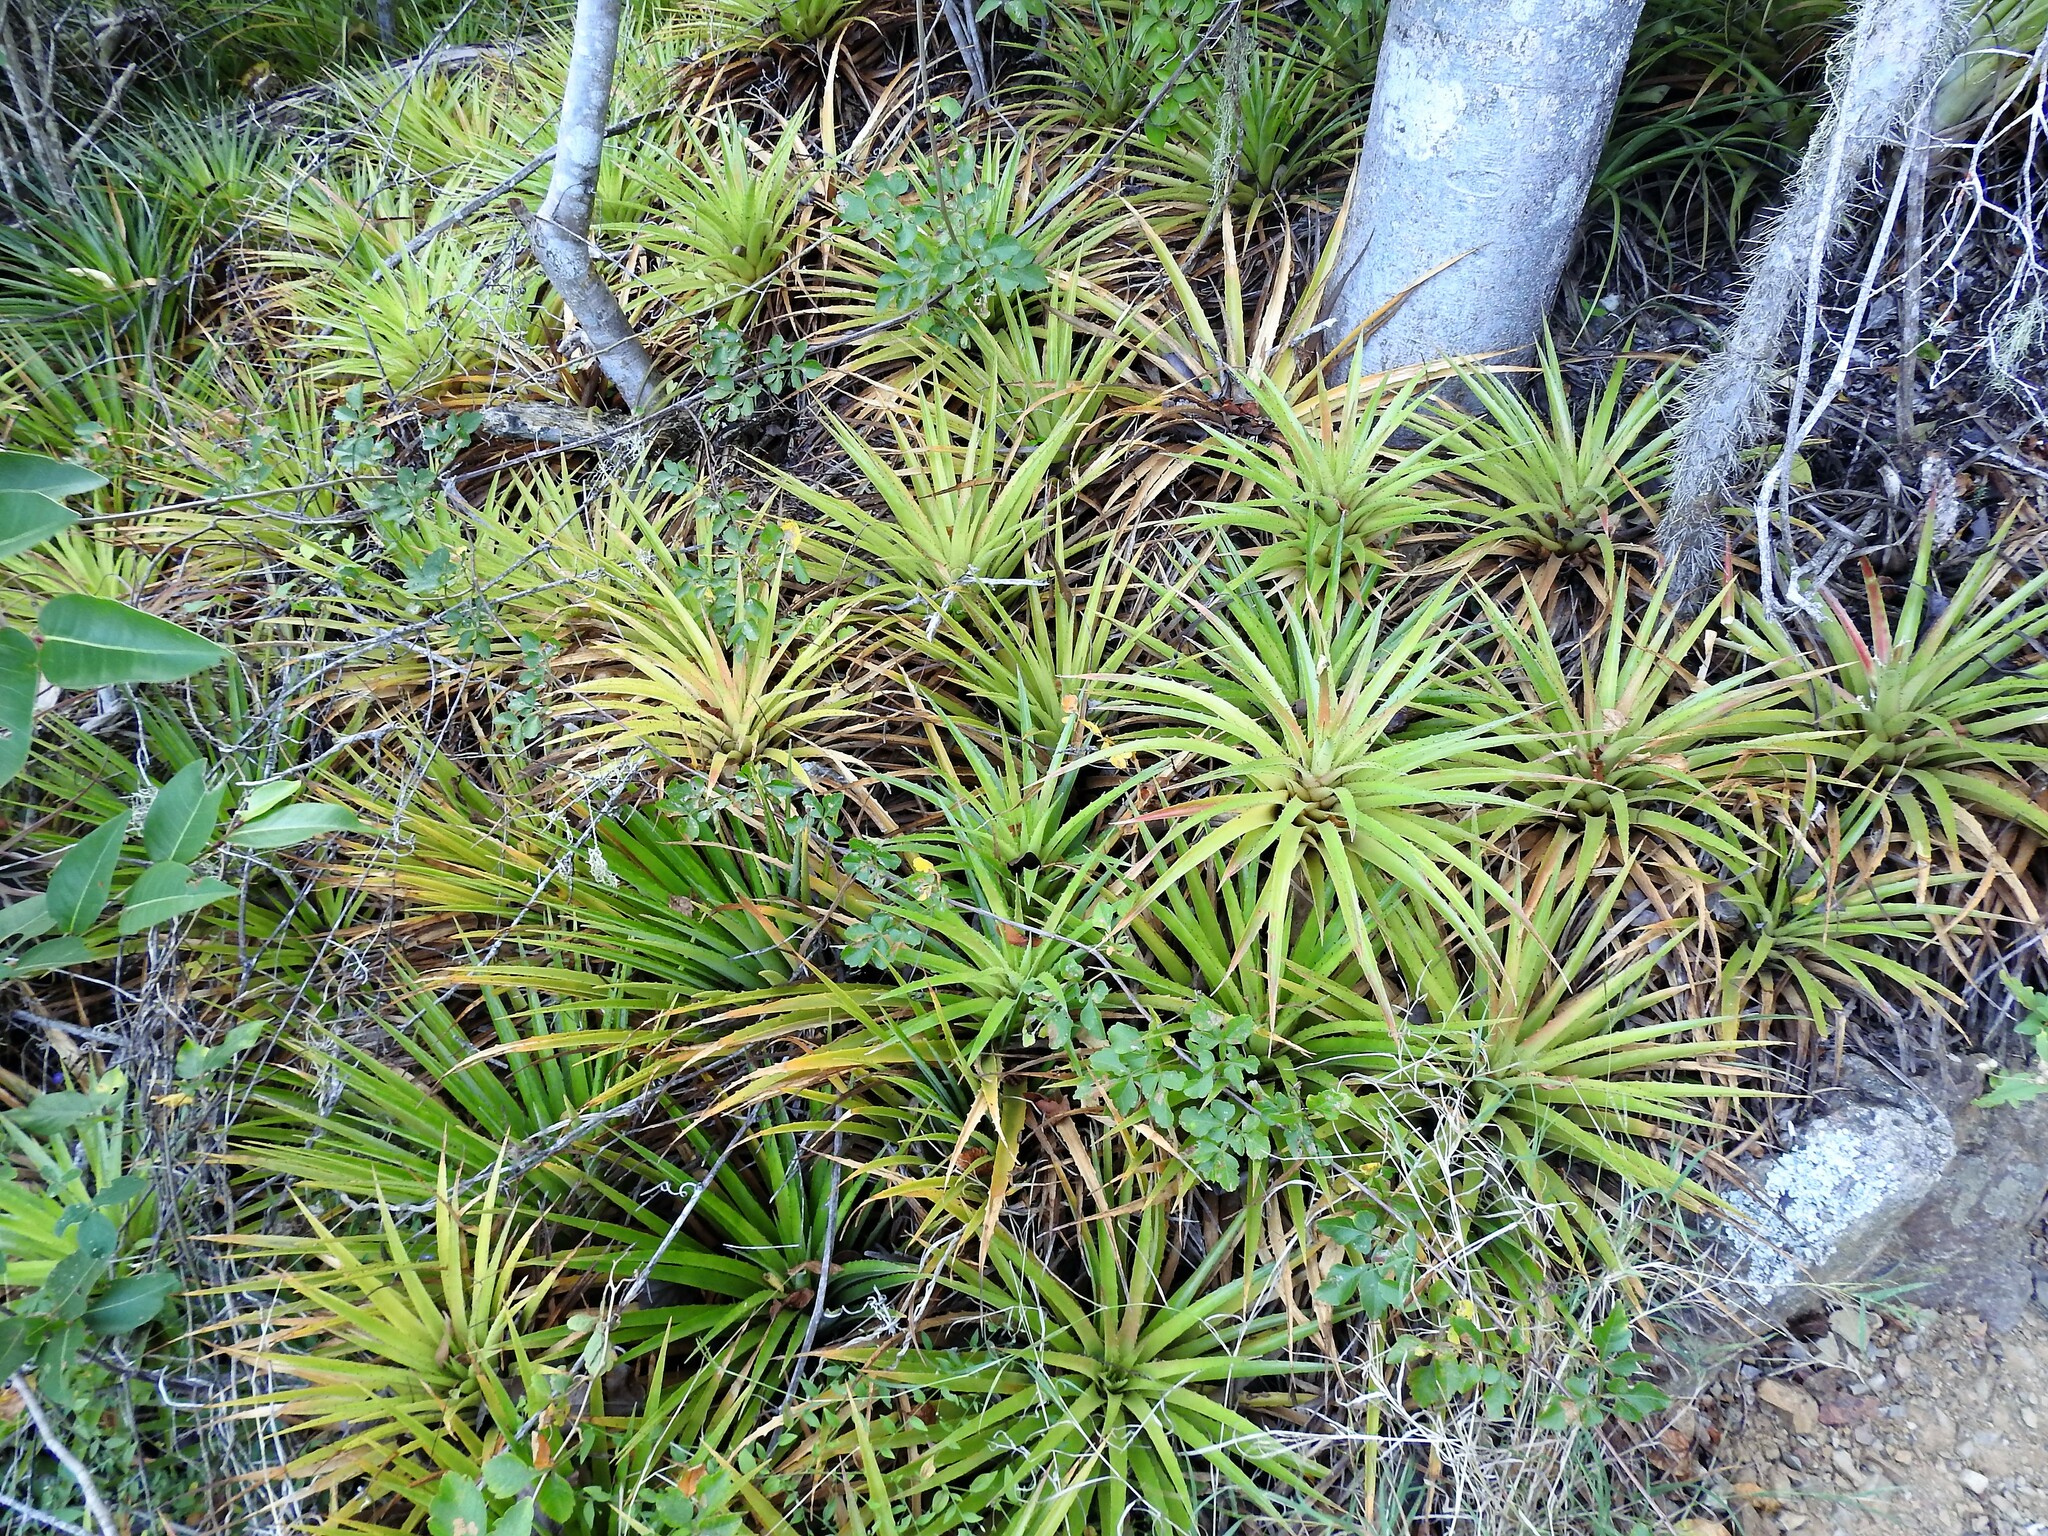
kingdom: Plantae
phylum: Tracheophyta
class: Liliopsida
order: Poales
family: Bromeliaceae
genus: Bromelia
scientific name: Bromelia humilis
